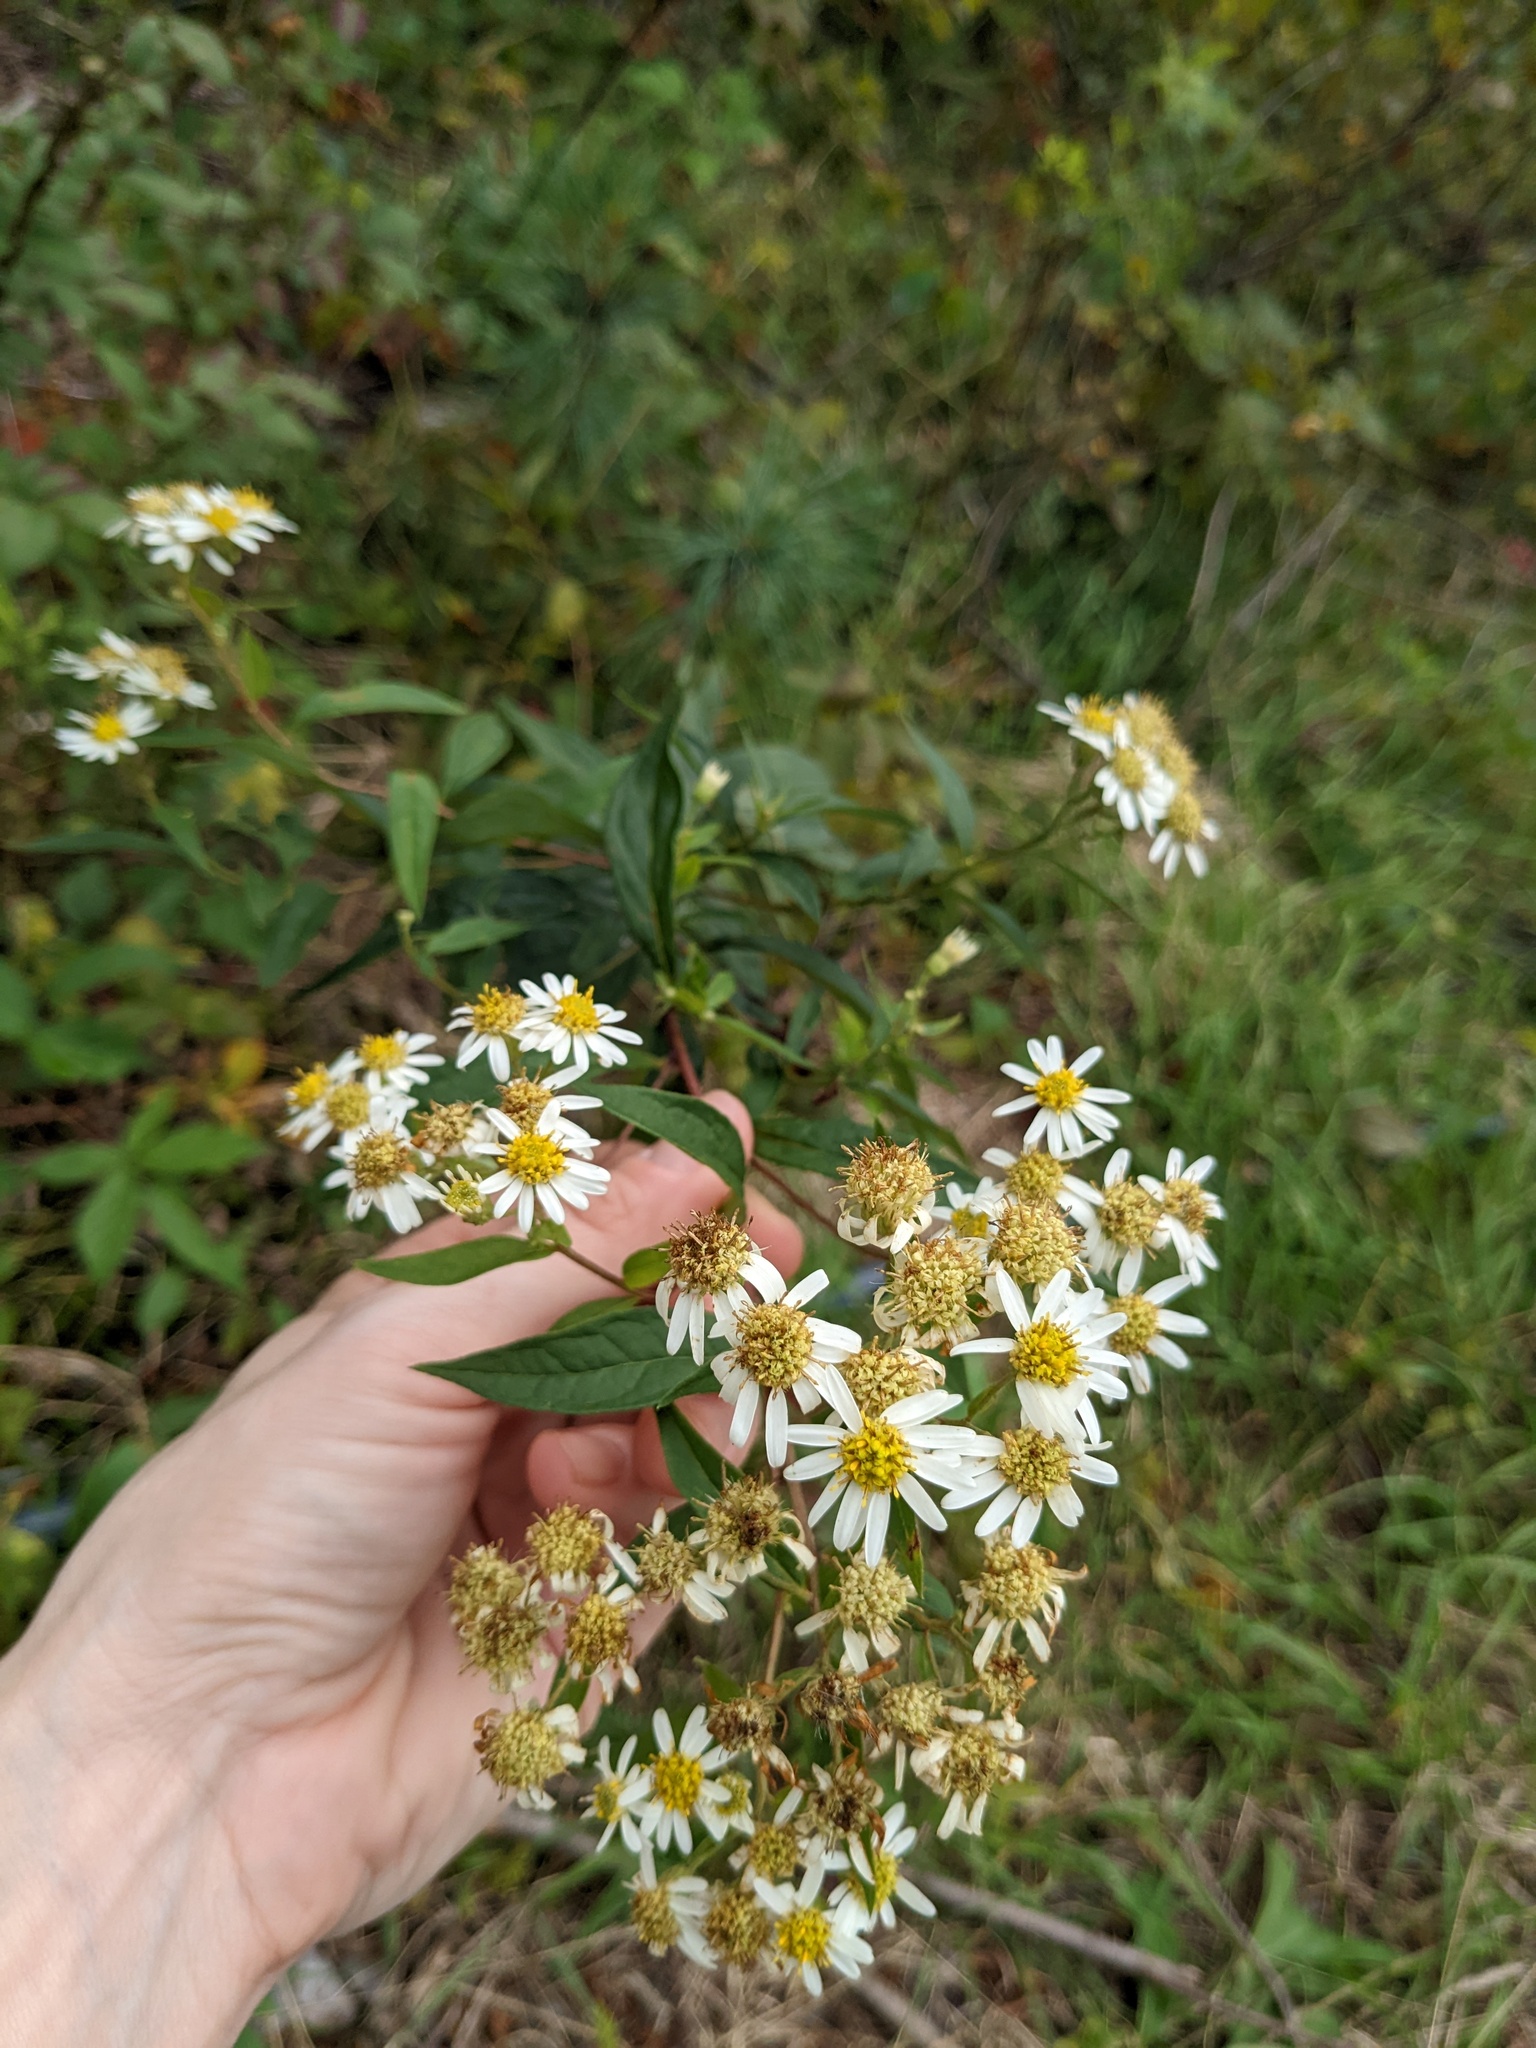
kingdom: Plantae
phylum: Tracheophyta
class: Magnoliopsida
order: Asterales
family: Asteraceae
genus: Doellingeria
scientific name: Doellingeria umbellata
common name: Flat-top white aster
